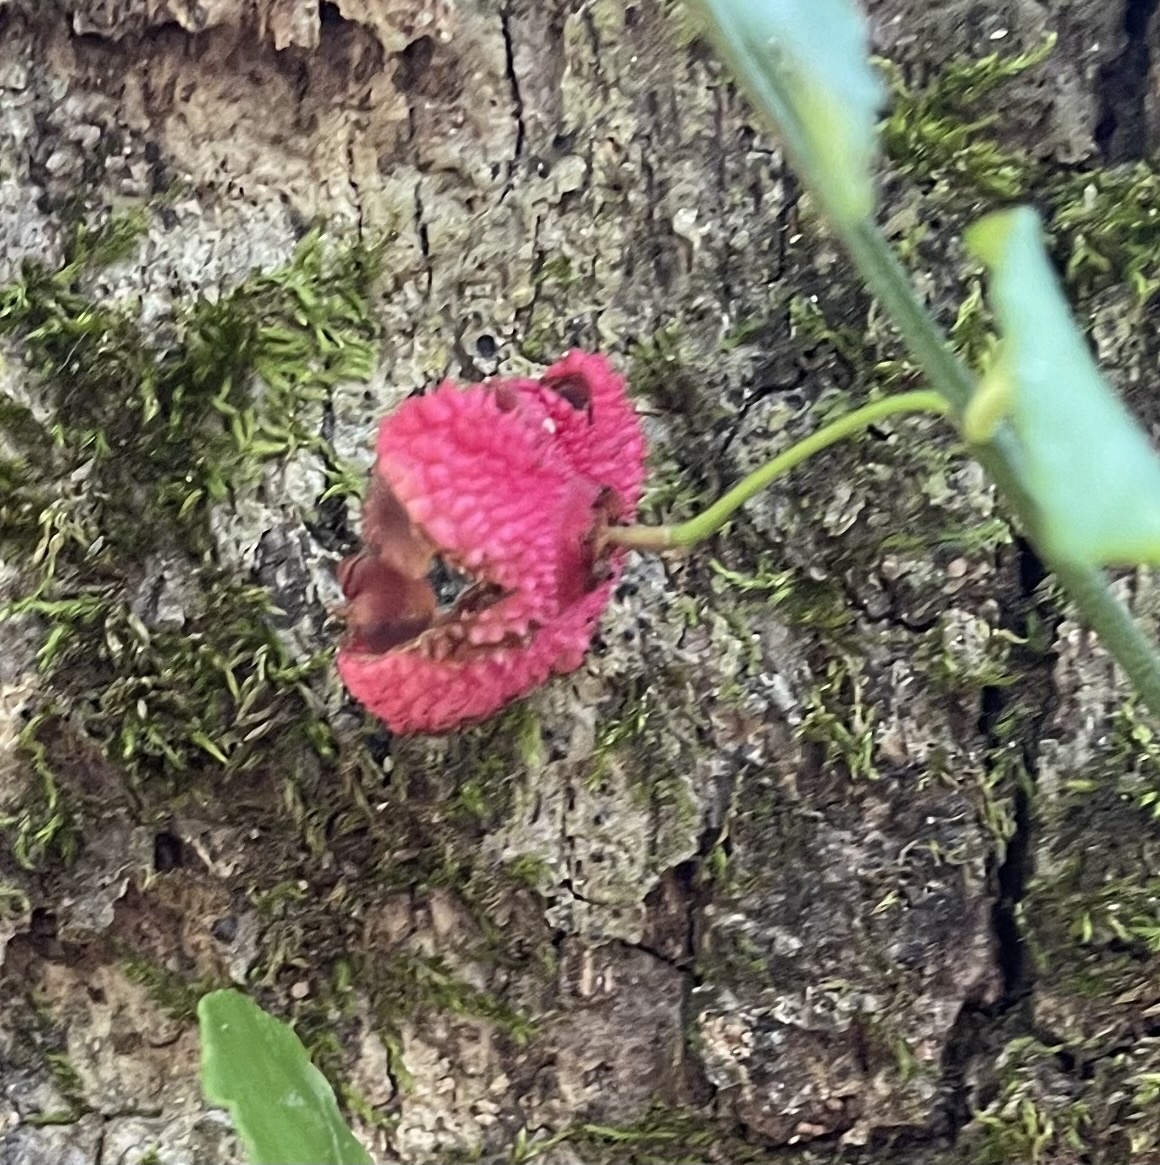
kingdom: Plantae
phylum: Tracheophyta
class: Magnoliopsida
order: Celastrales
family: Celastraceae
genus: Euonymus
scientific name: Euonymus americanus
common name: Bursting-heart
